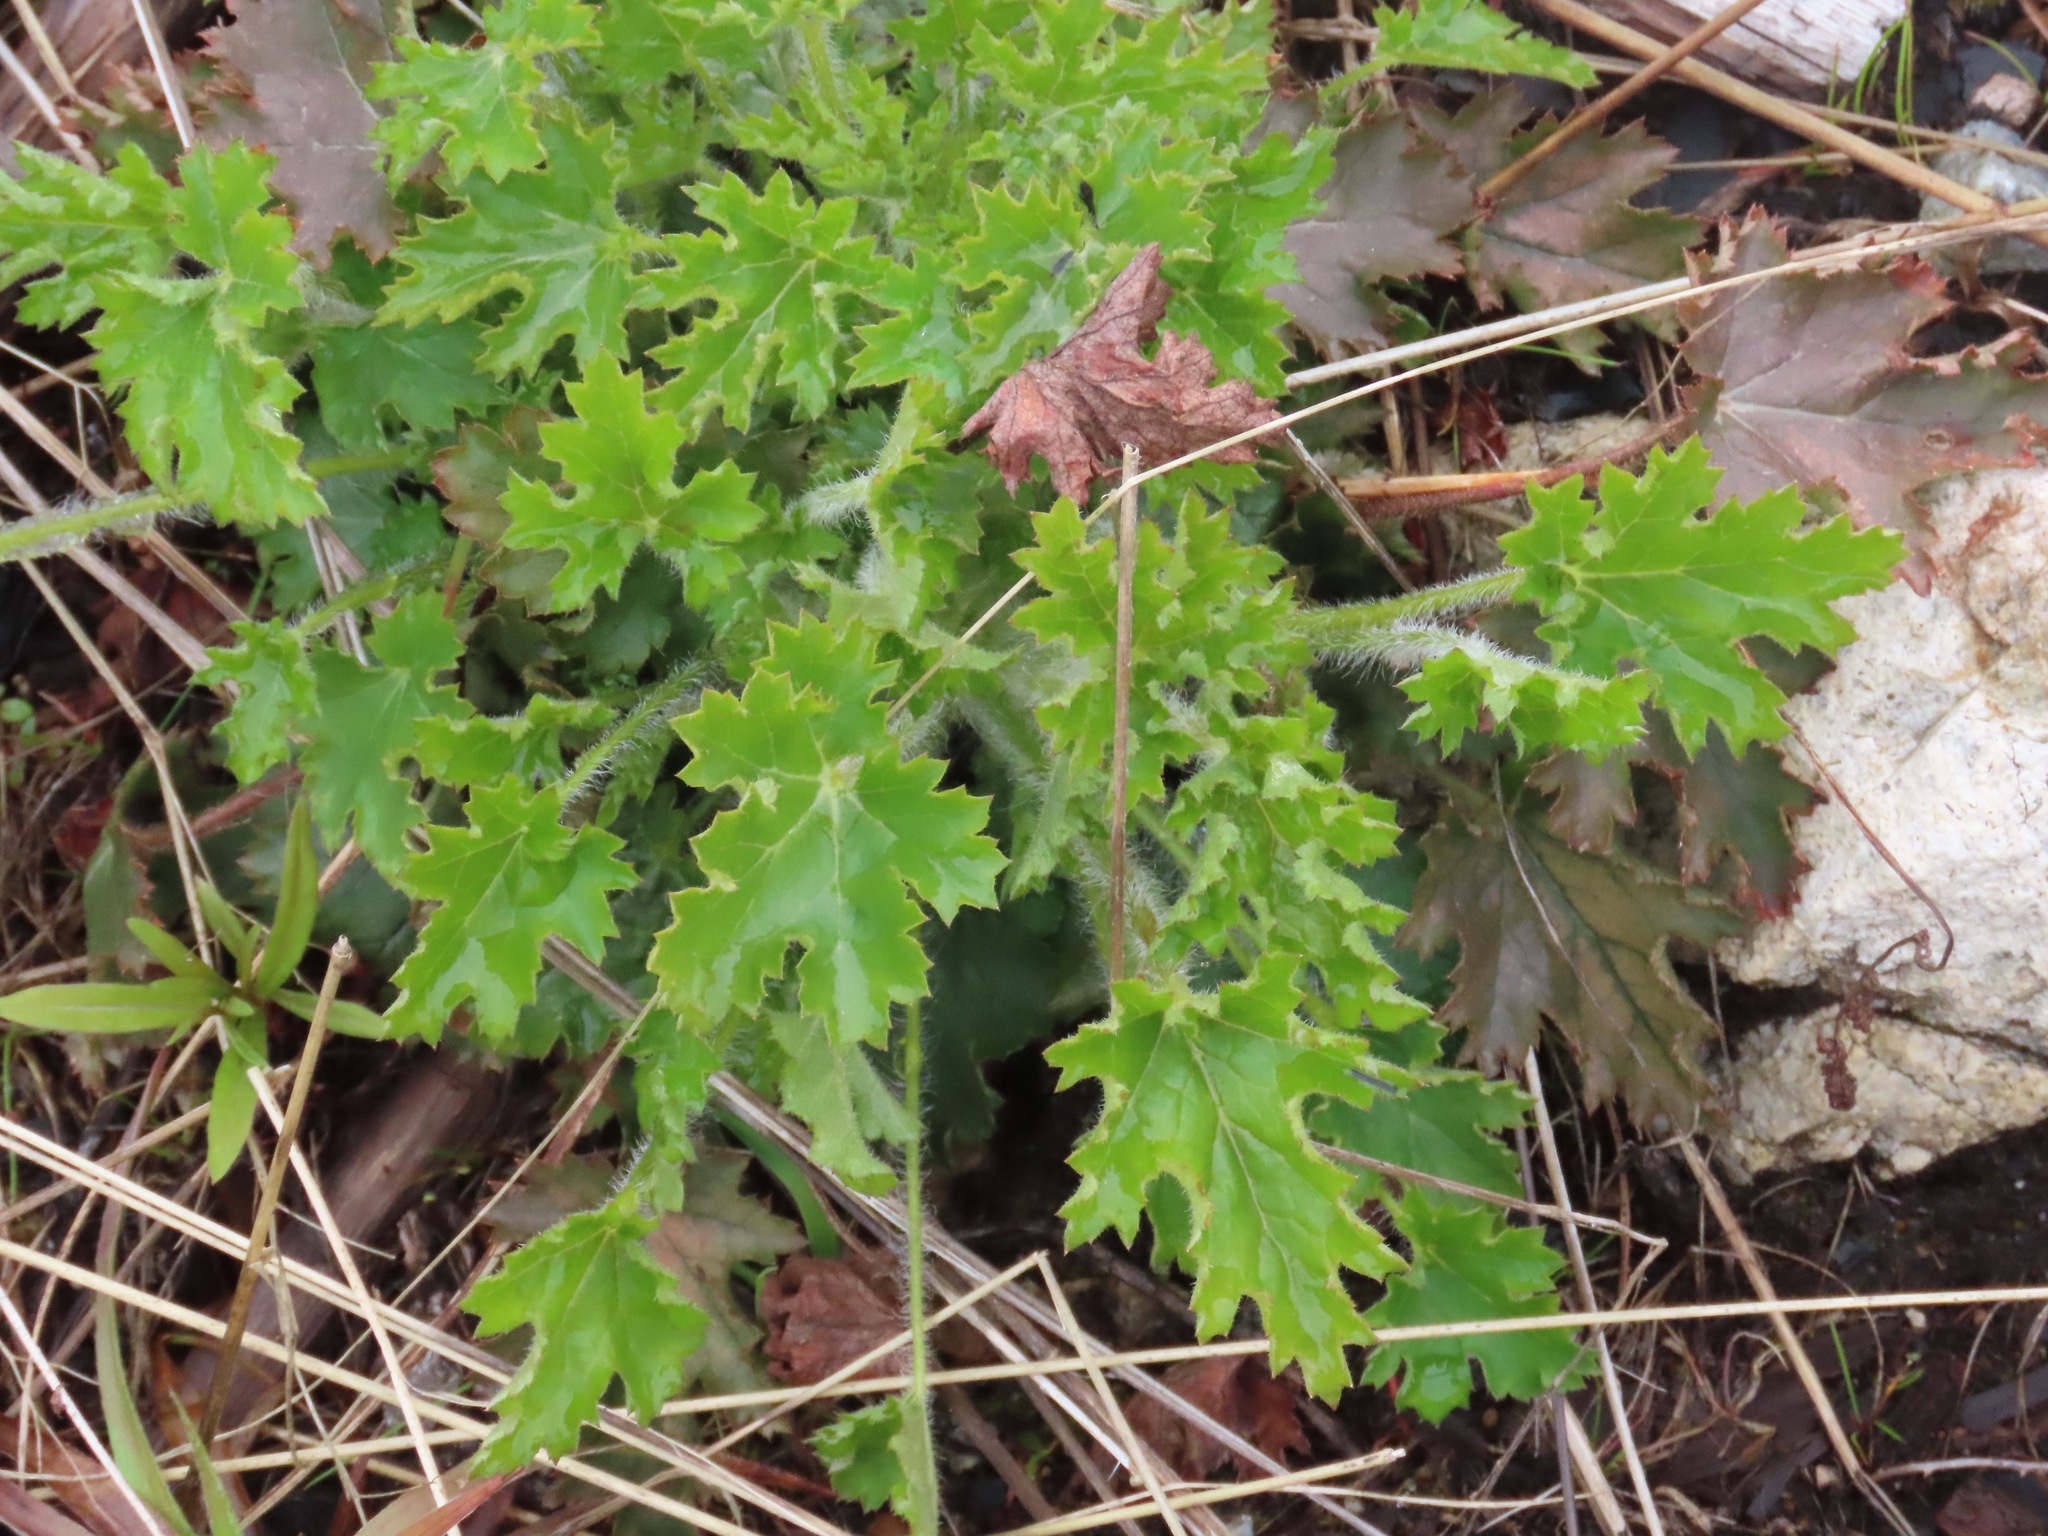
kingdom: Plantae
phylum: Tracheophyta
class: Magnoliopsida
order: Saxifragales
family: Saxifragaceae
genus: Heuchera
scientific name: Heuchera micrantha
